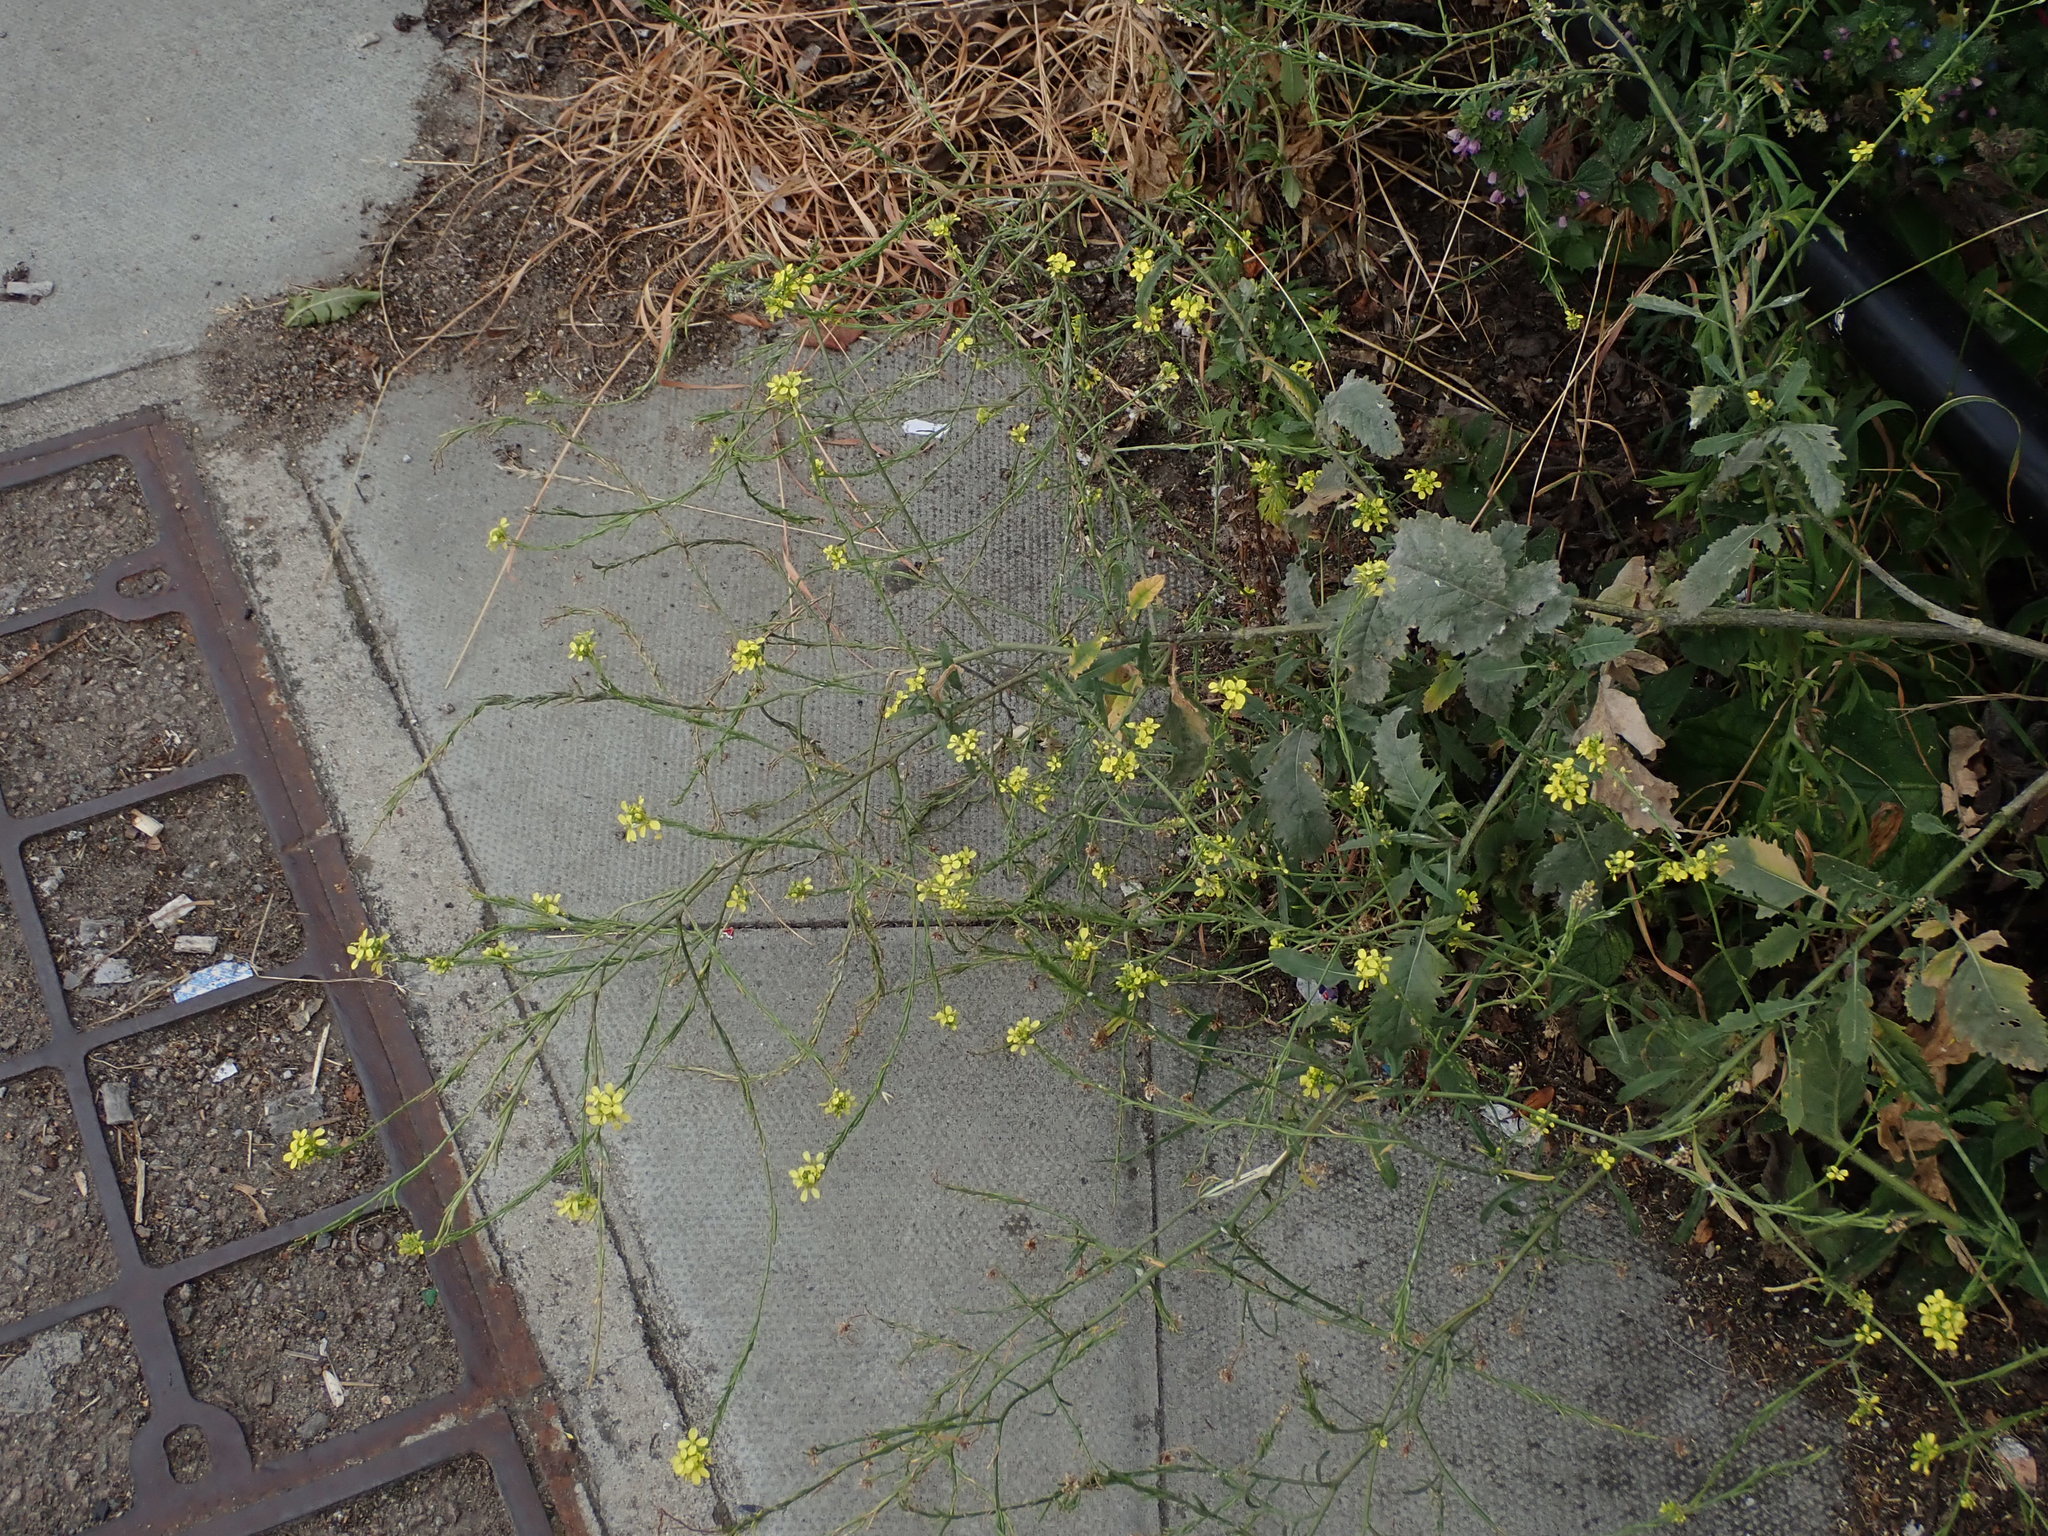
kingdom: Plantae
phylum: Tracheophyta
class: Magnoliopsida
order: Brassicales
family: Brassicaceae
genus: Hirschfeldia
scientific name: Hirschfeldia incana
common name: Hoary mustard
